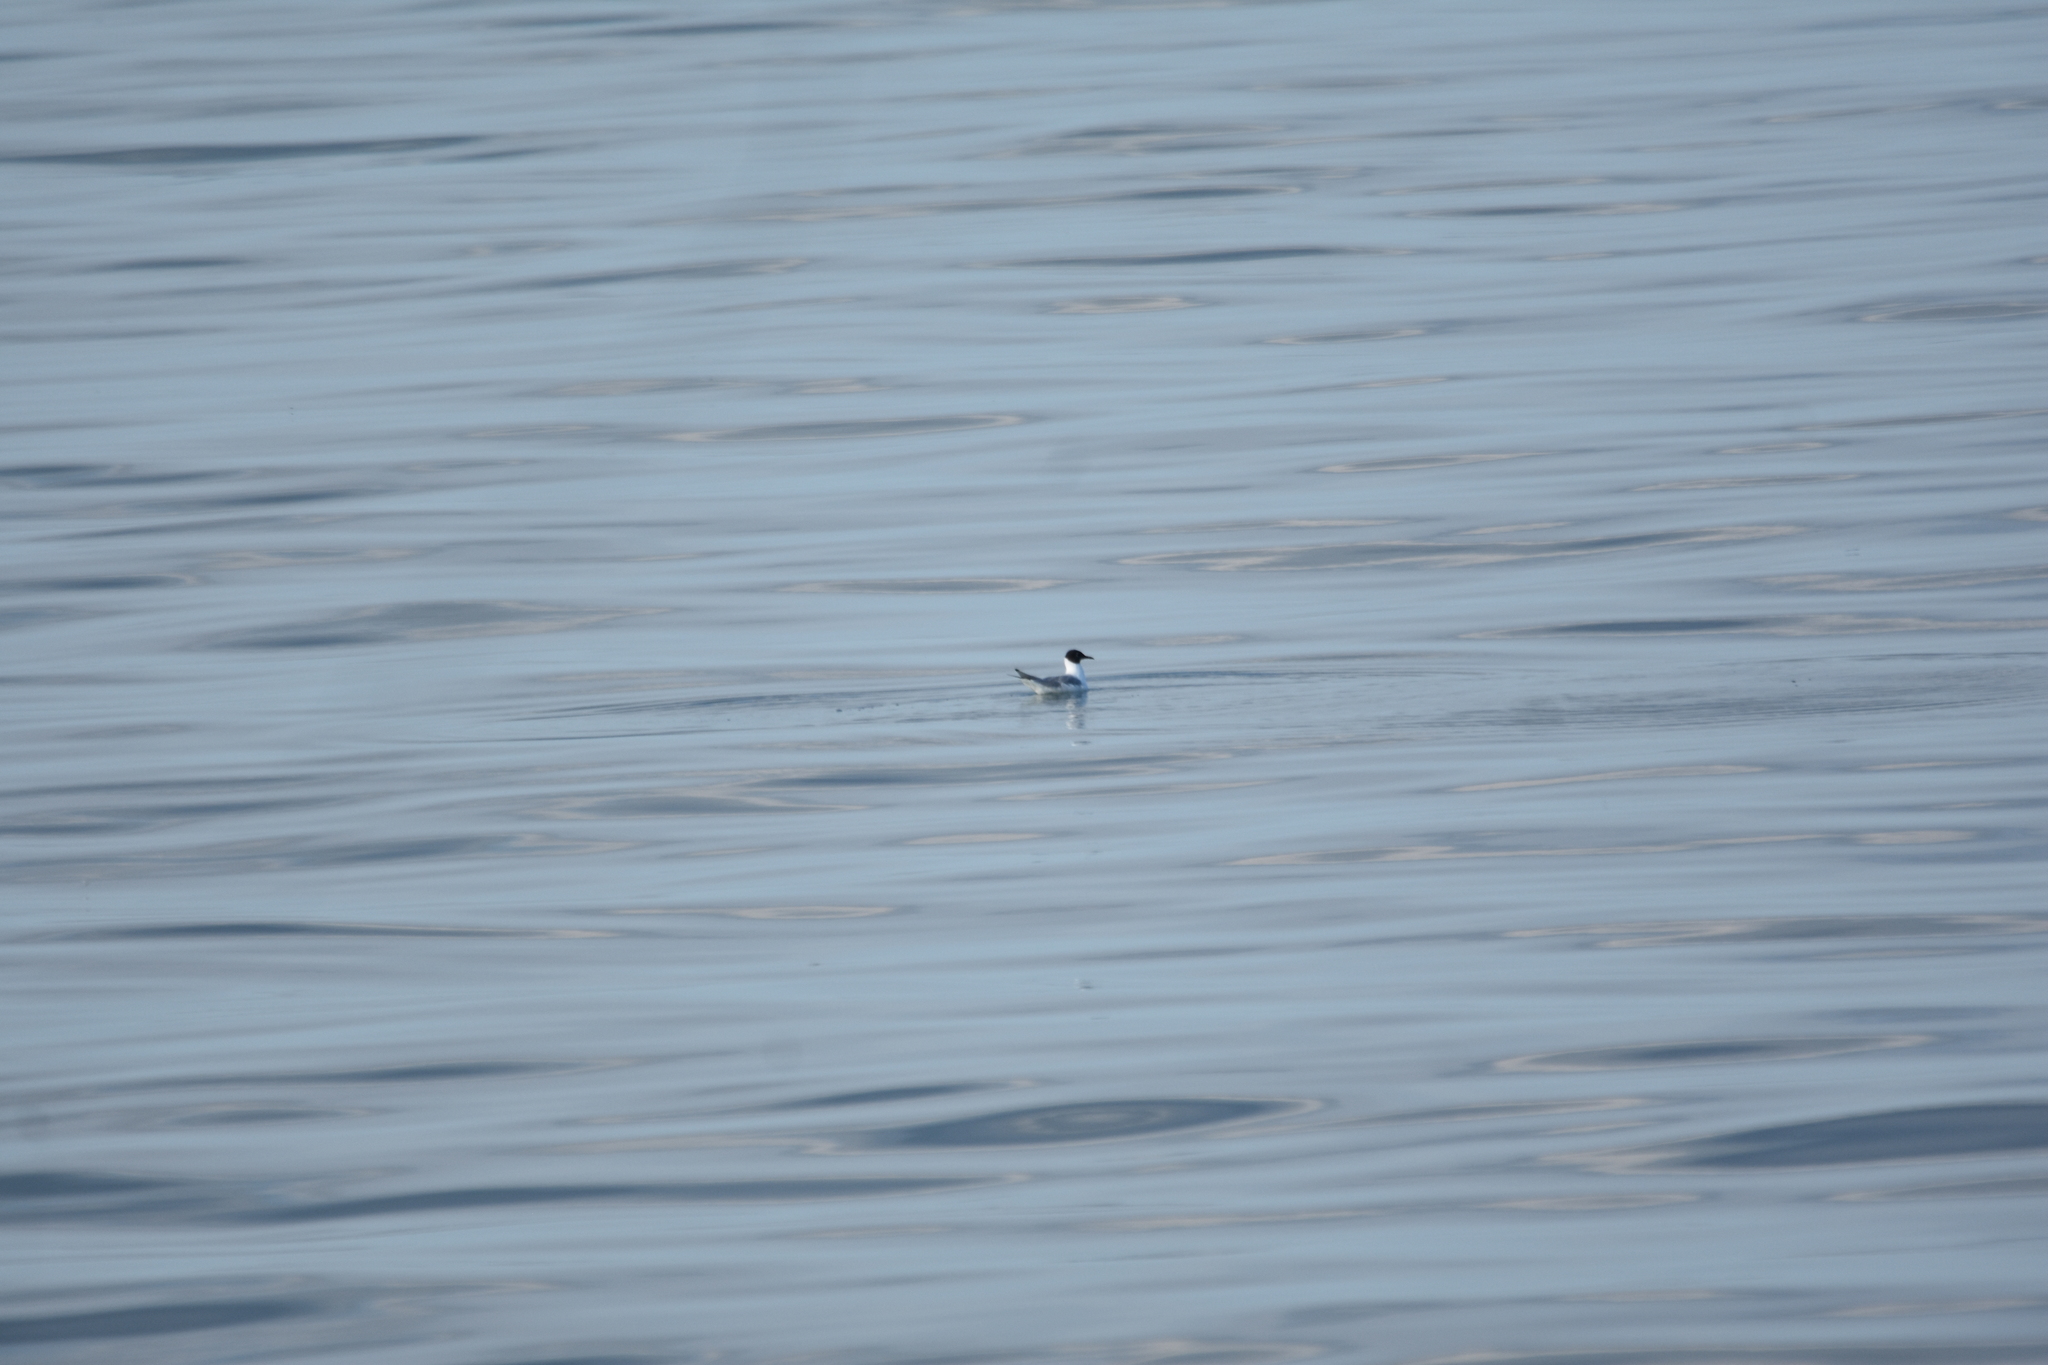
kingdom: Animalia
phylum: Chordata
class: Aves
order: Charadriiformes
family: Laridae
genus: Chroicocephalus
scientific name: Chroicocephalus philadelphia
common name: Bonaparte's gull
